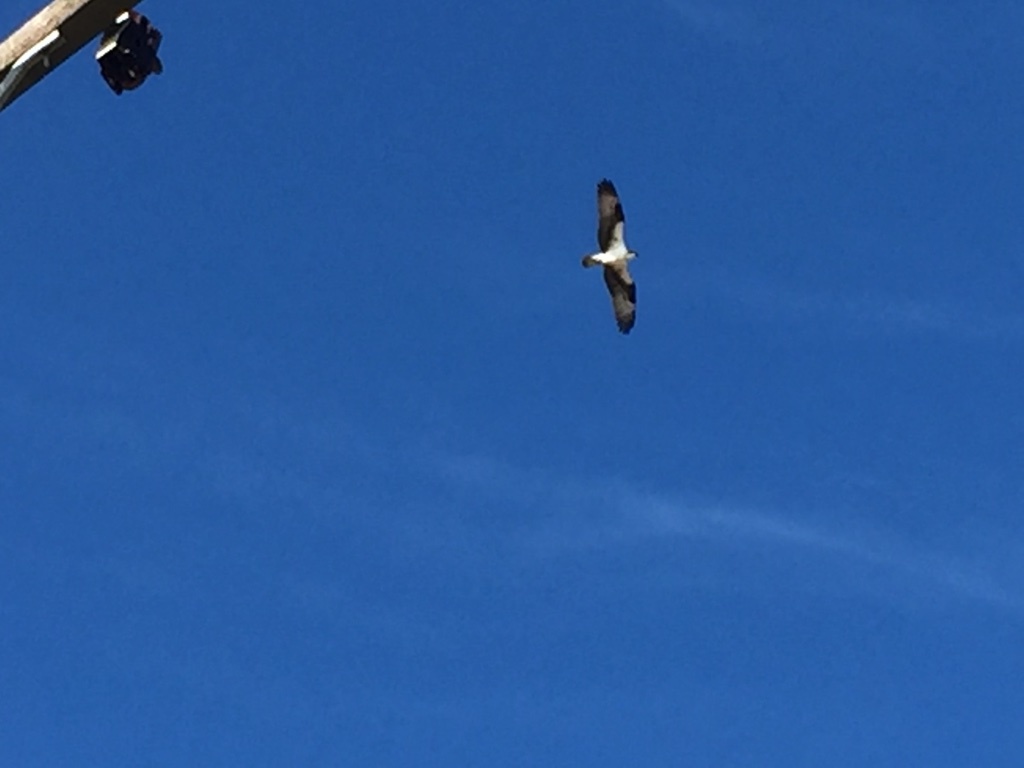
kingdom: Animalia
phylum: Chordata
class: Aves
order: Accipitriformes
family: Pandionidae
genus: Pandion
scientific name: Pandion haliaetus
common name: Osprey
